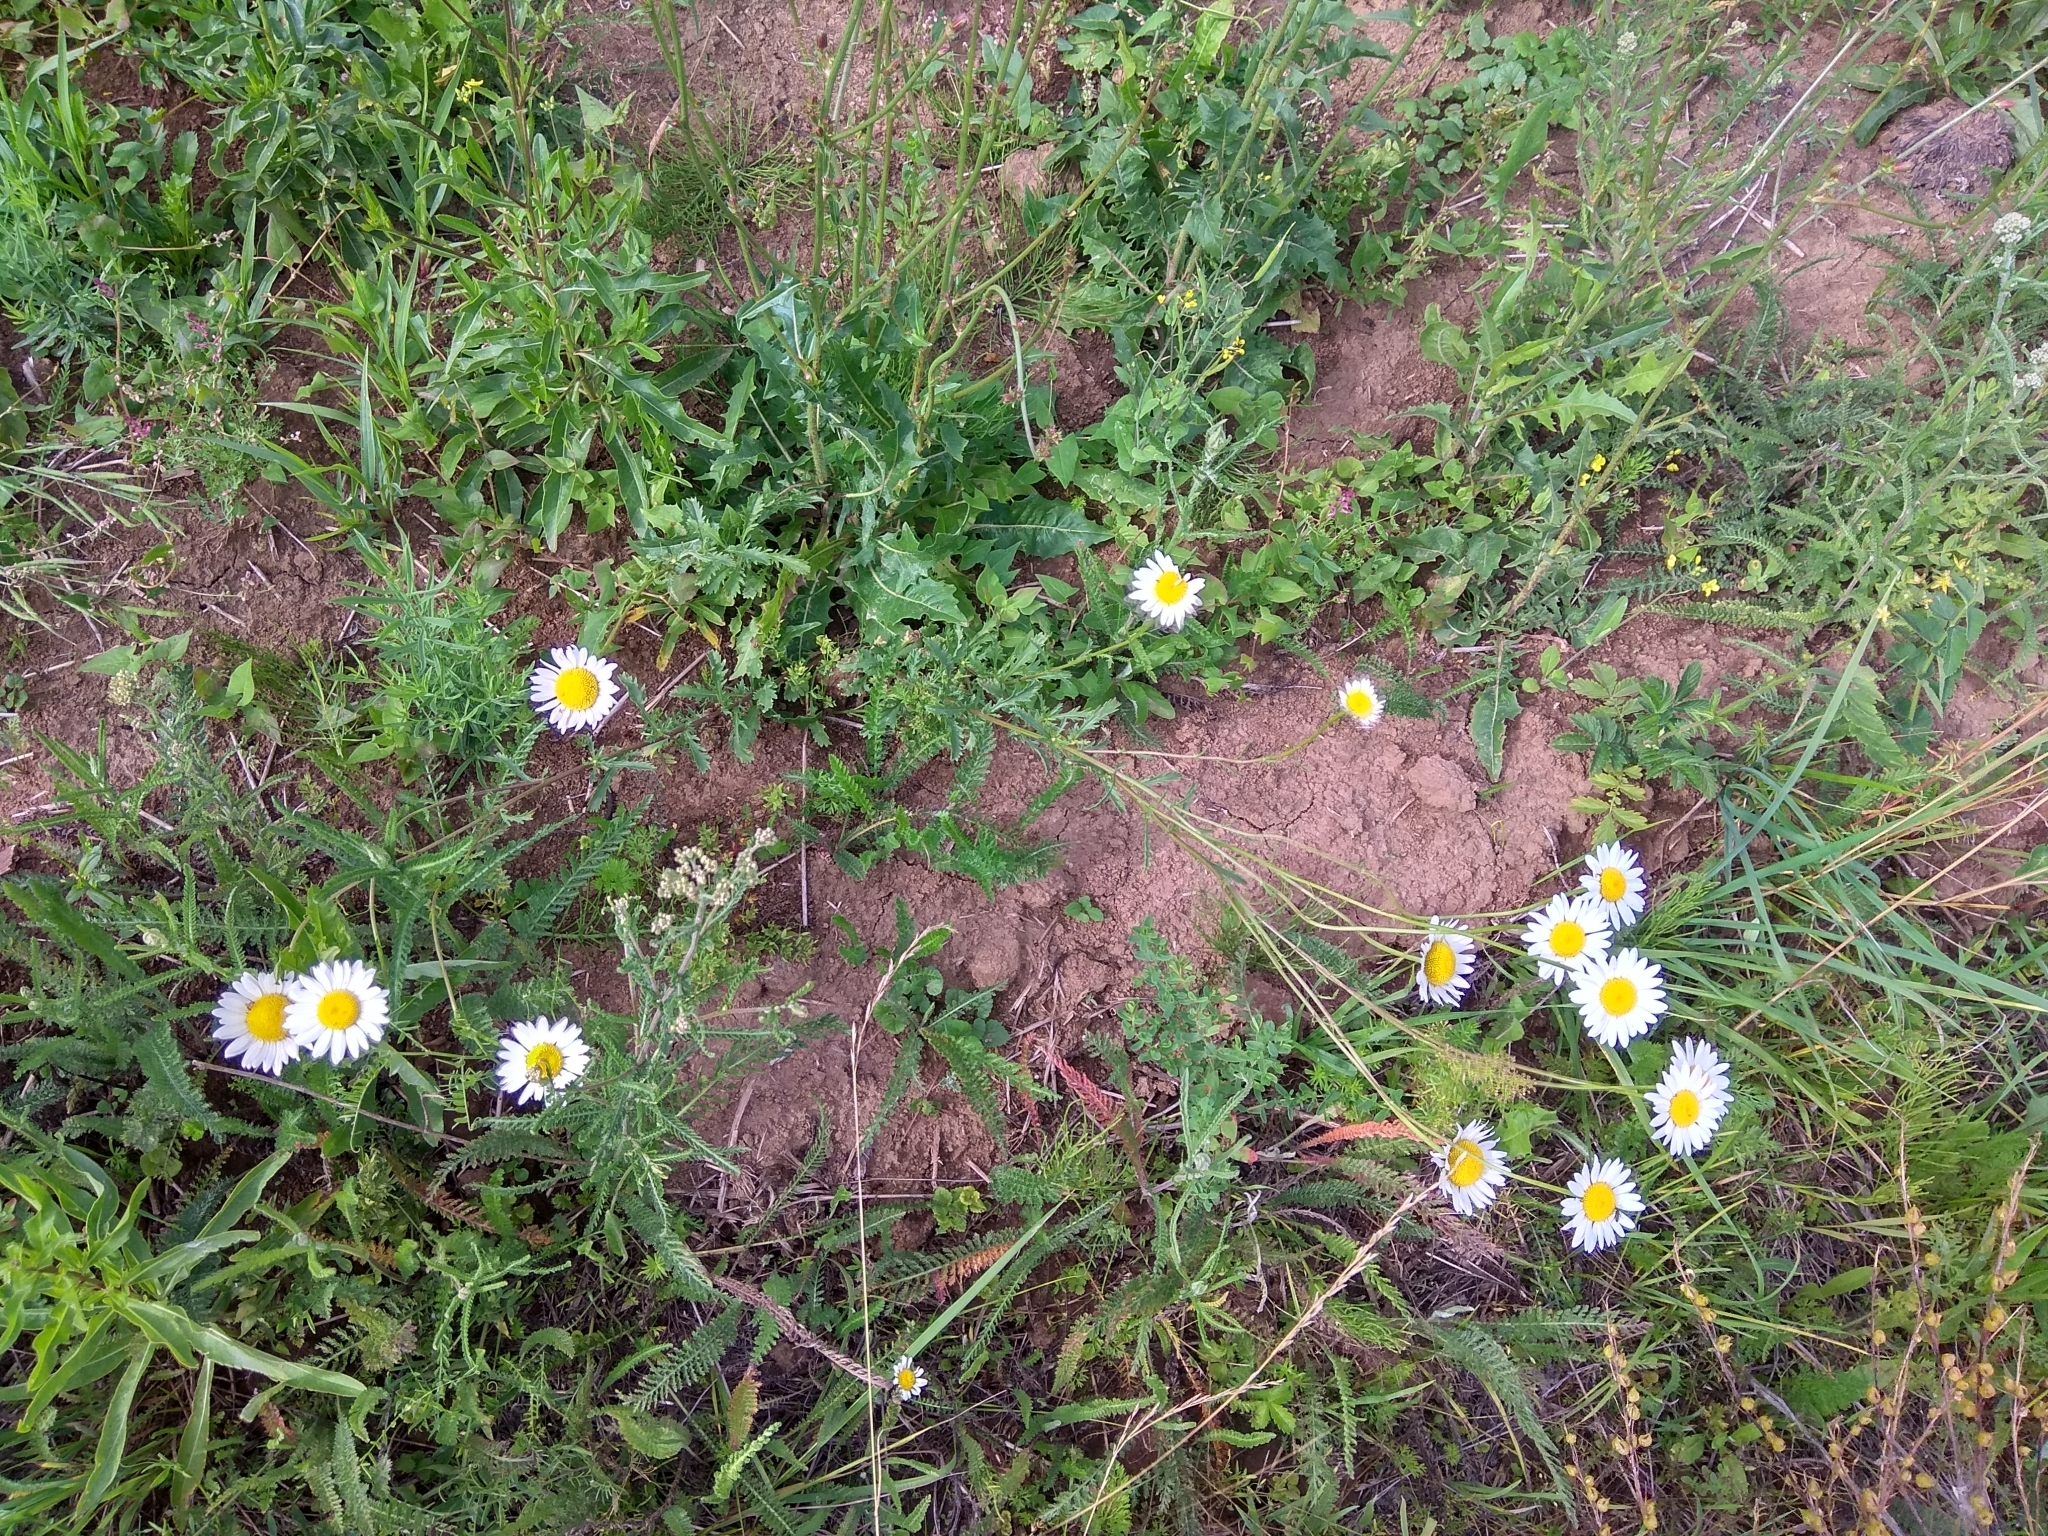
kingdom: Plantae
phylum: Tracheophyta
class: Magnoliopsida
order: Asterales
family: Asteraceae
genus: Leucanthemum
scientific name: Leucanthemum vulgare
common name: Oxeye daisy
